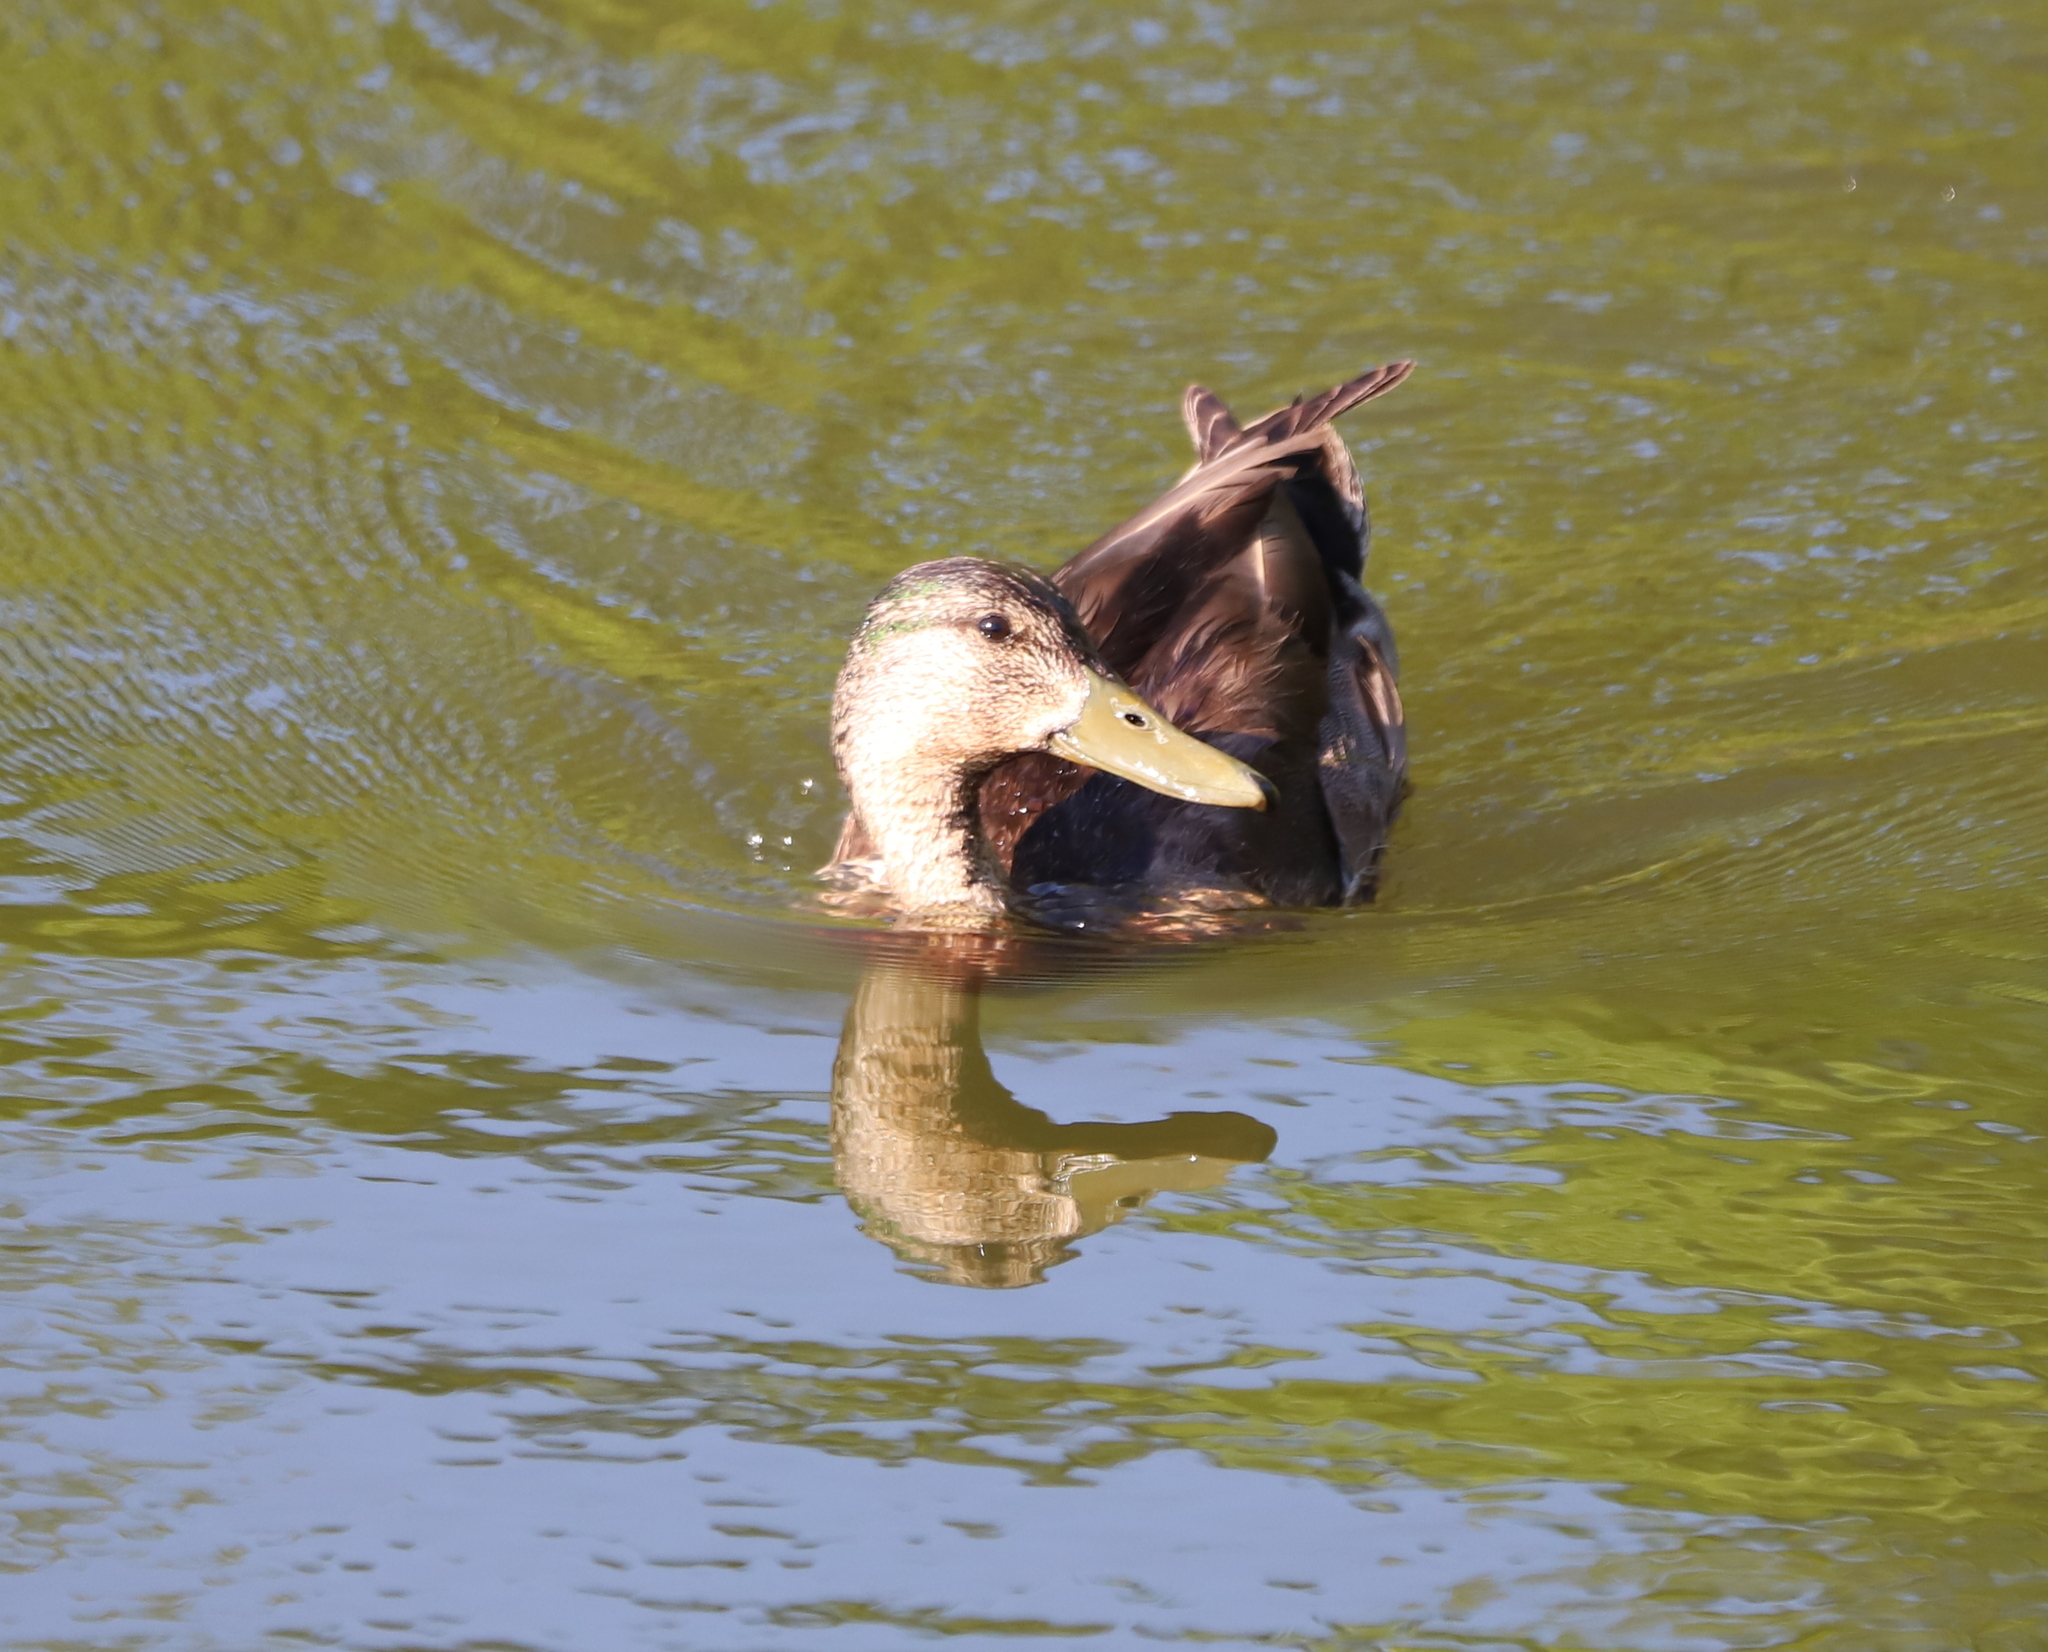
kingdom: Animalia
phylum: Chordata
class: Aves
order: Anseriformes
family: Anatidae
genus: Anas
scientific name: Anas platyrhynchos
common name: Mallard
